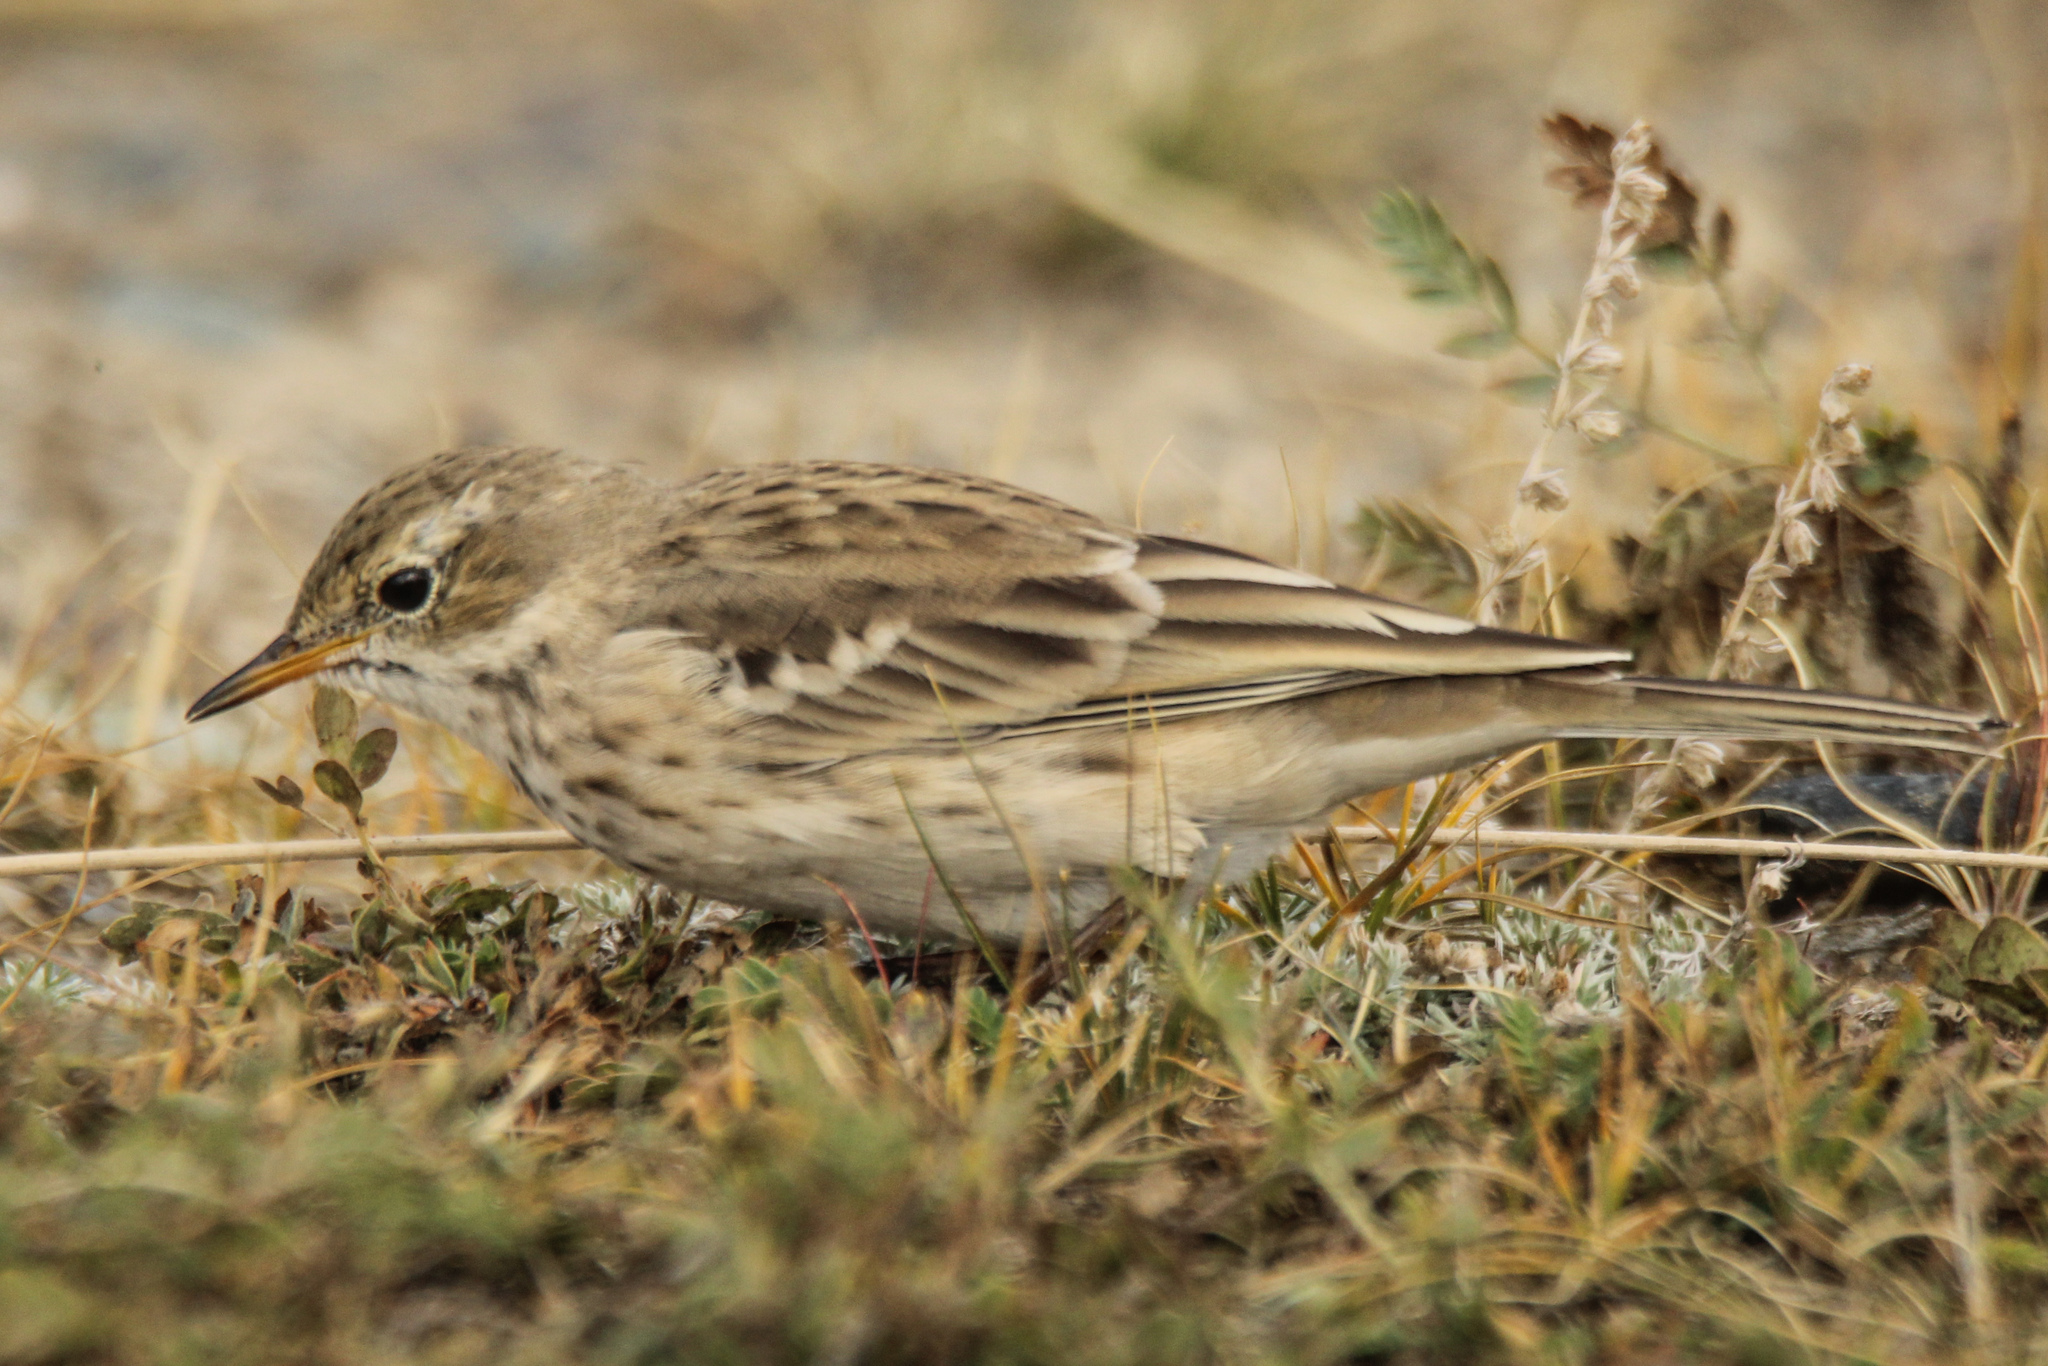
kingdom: Animalia
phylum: Chordata
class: Aves
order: Passeriformes
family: Motacillidae
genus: Anthus
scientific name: Anthus spinoletta
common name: Water pipit
